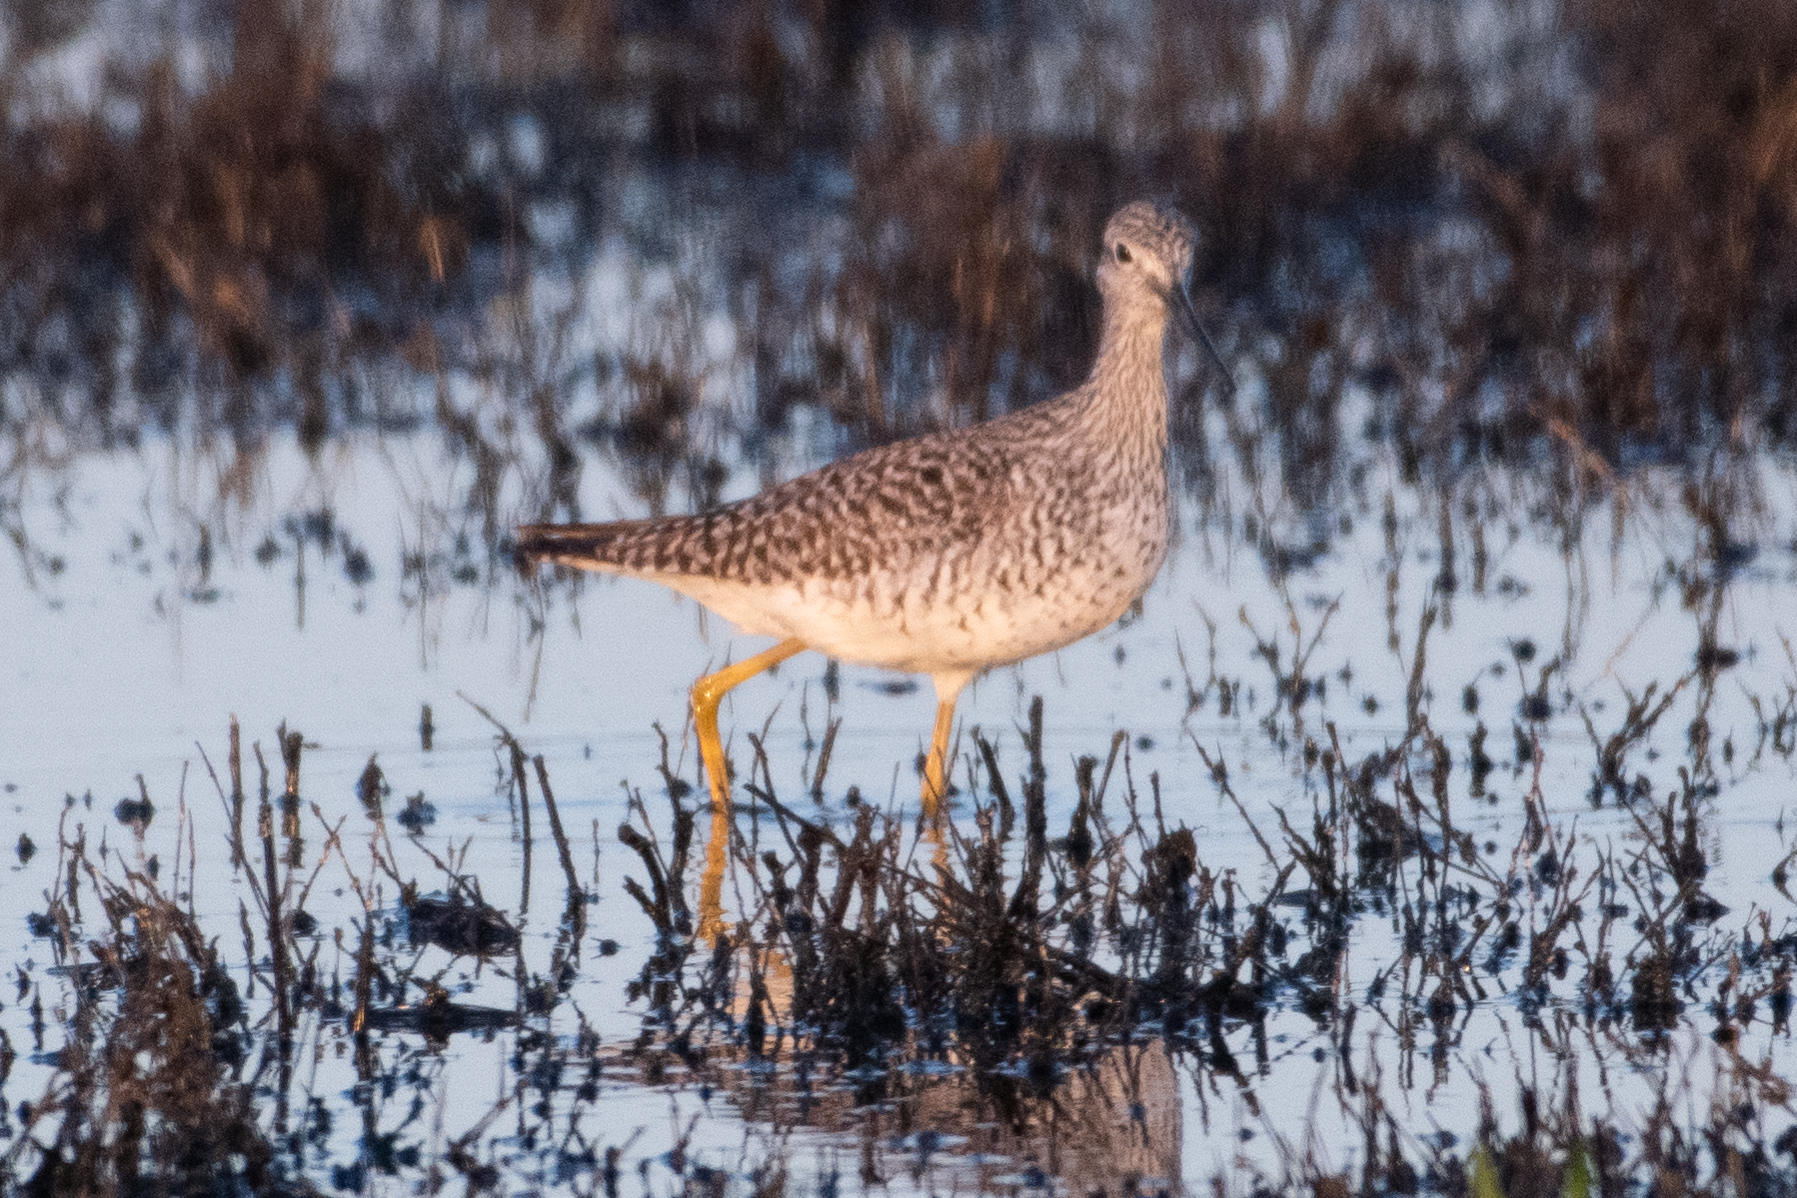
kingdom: Animalia
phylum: Chordata
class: Aves
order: Charadriiformes
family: Scolopacidae
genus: Tringa
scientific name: Tringa melanoleuca
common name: Greater yellowlegs
